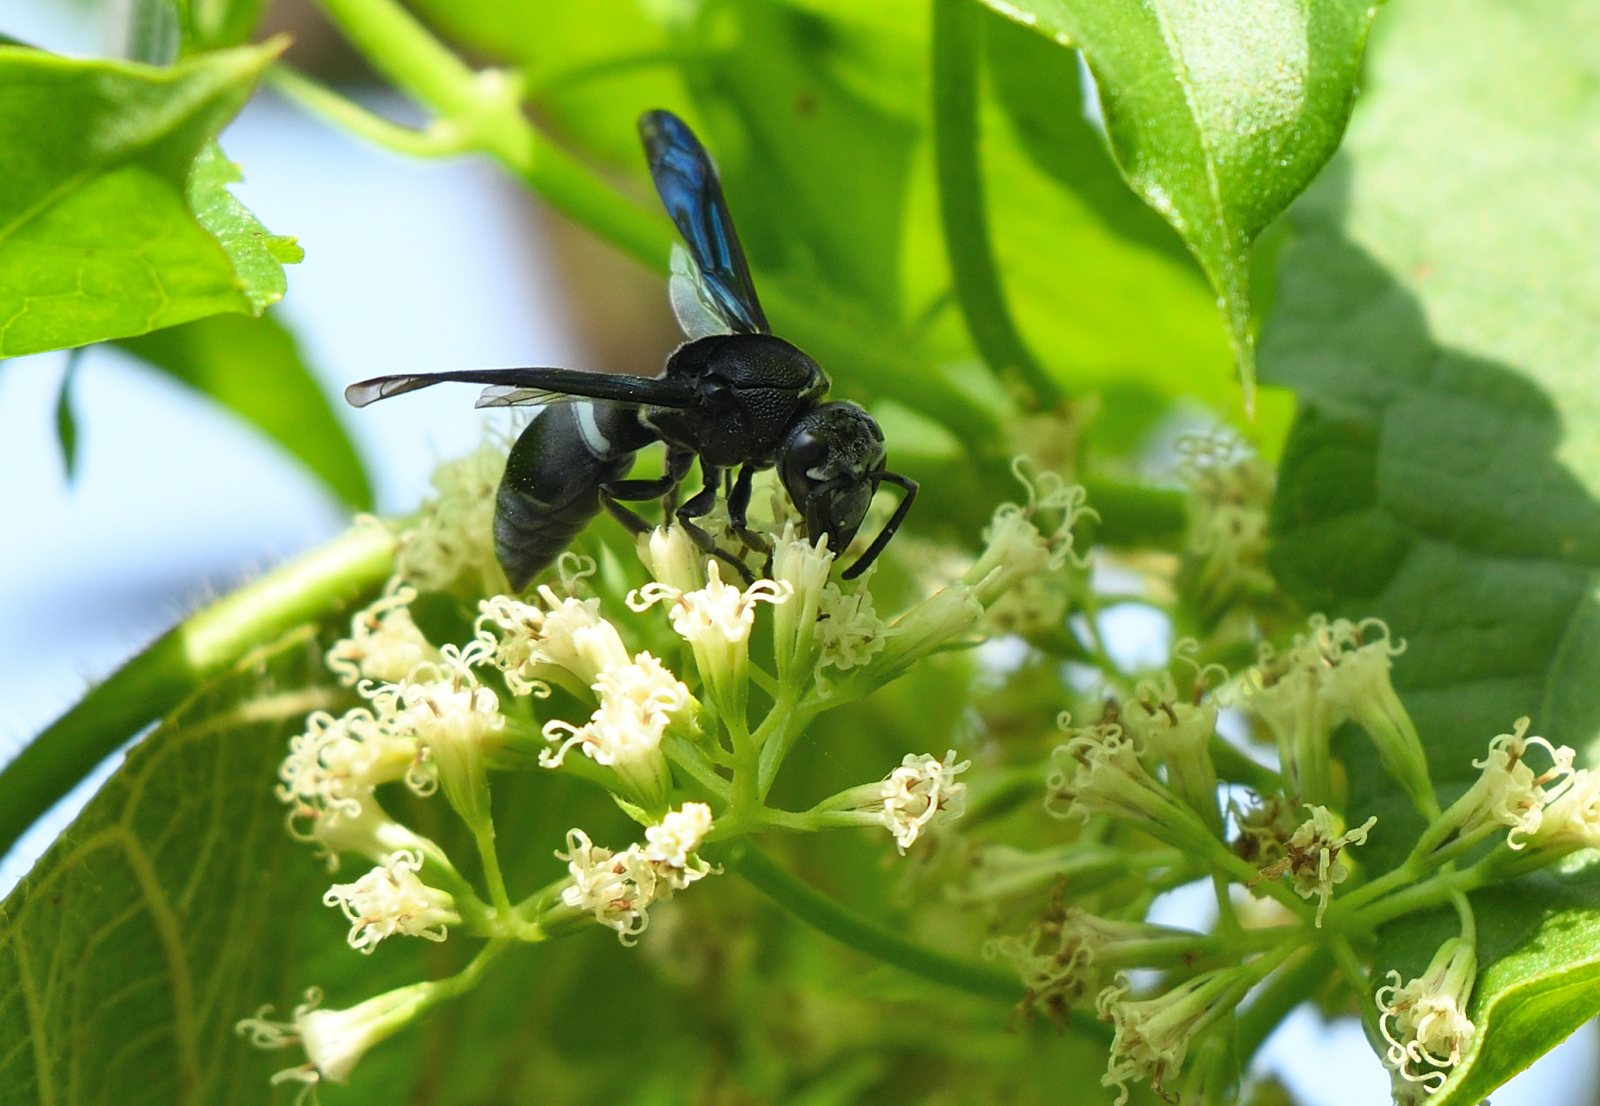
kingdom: Animalia
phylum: Arthropoda
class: Insecta
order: Hymenoptera
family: Vespidae
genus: Indodynerus
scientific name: Indodynerus capitatus
